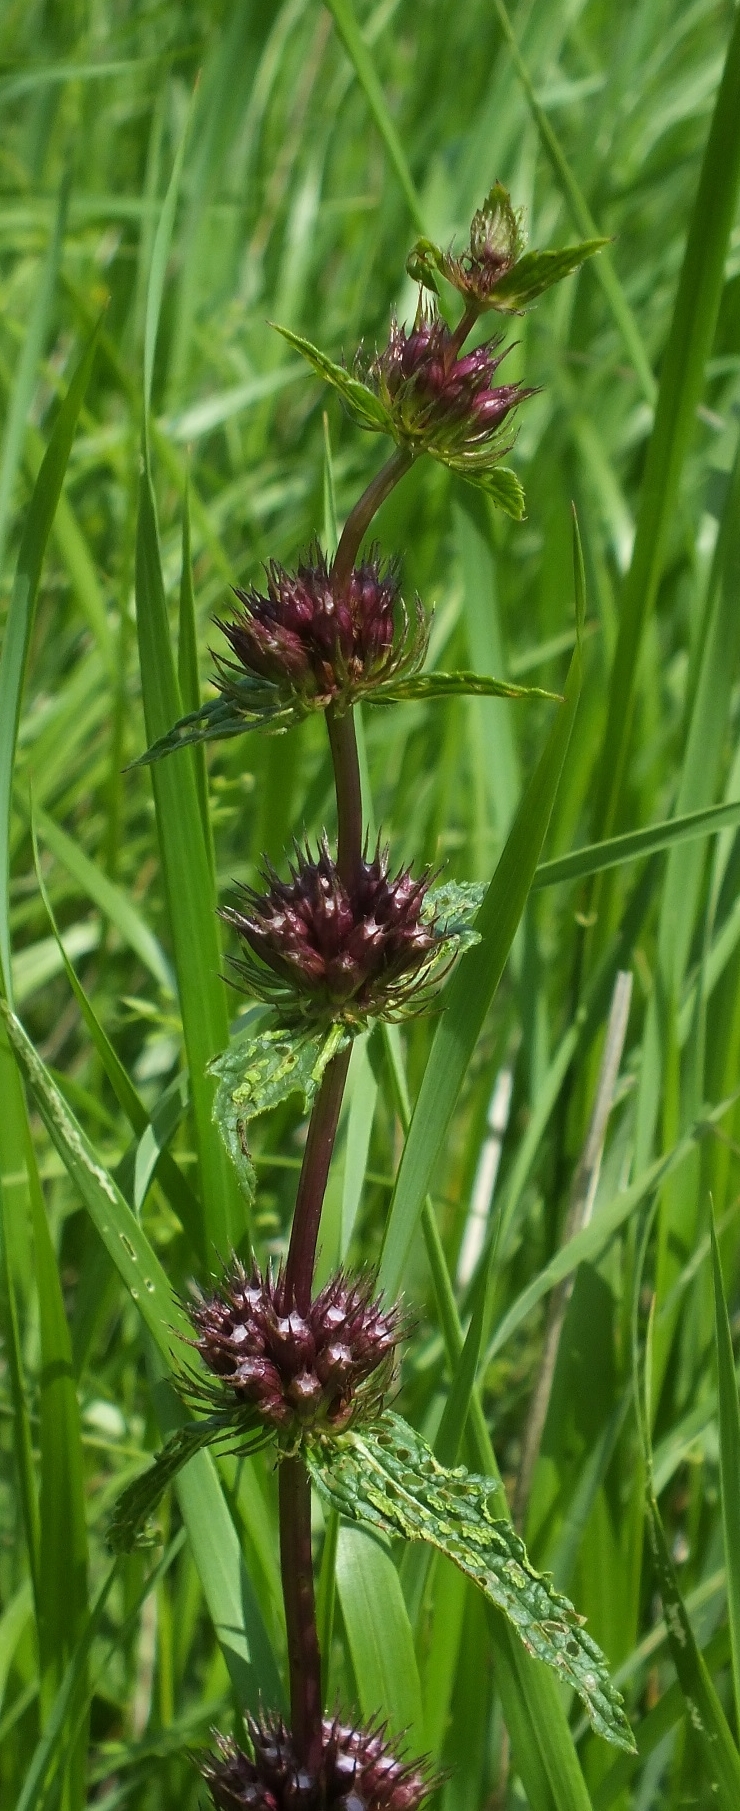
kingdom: Plantae
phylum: Tracheophyta
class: Magnoliopsida
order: Lamiales
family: Lamiaceae
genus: Phlomoides
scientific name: Phlomoides tuberosa
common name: Tuberous jerusalem sage
